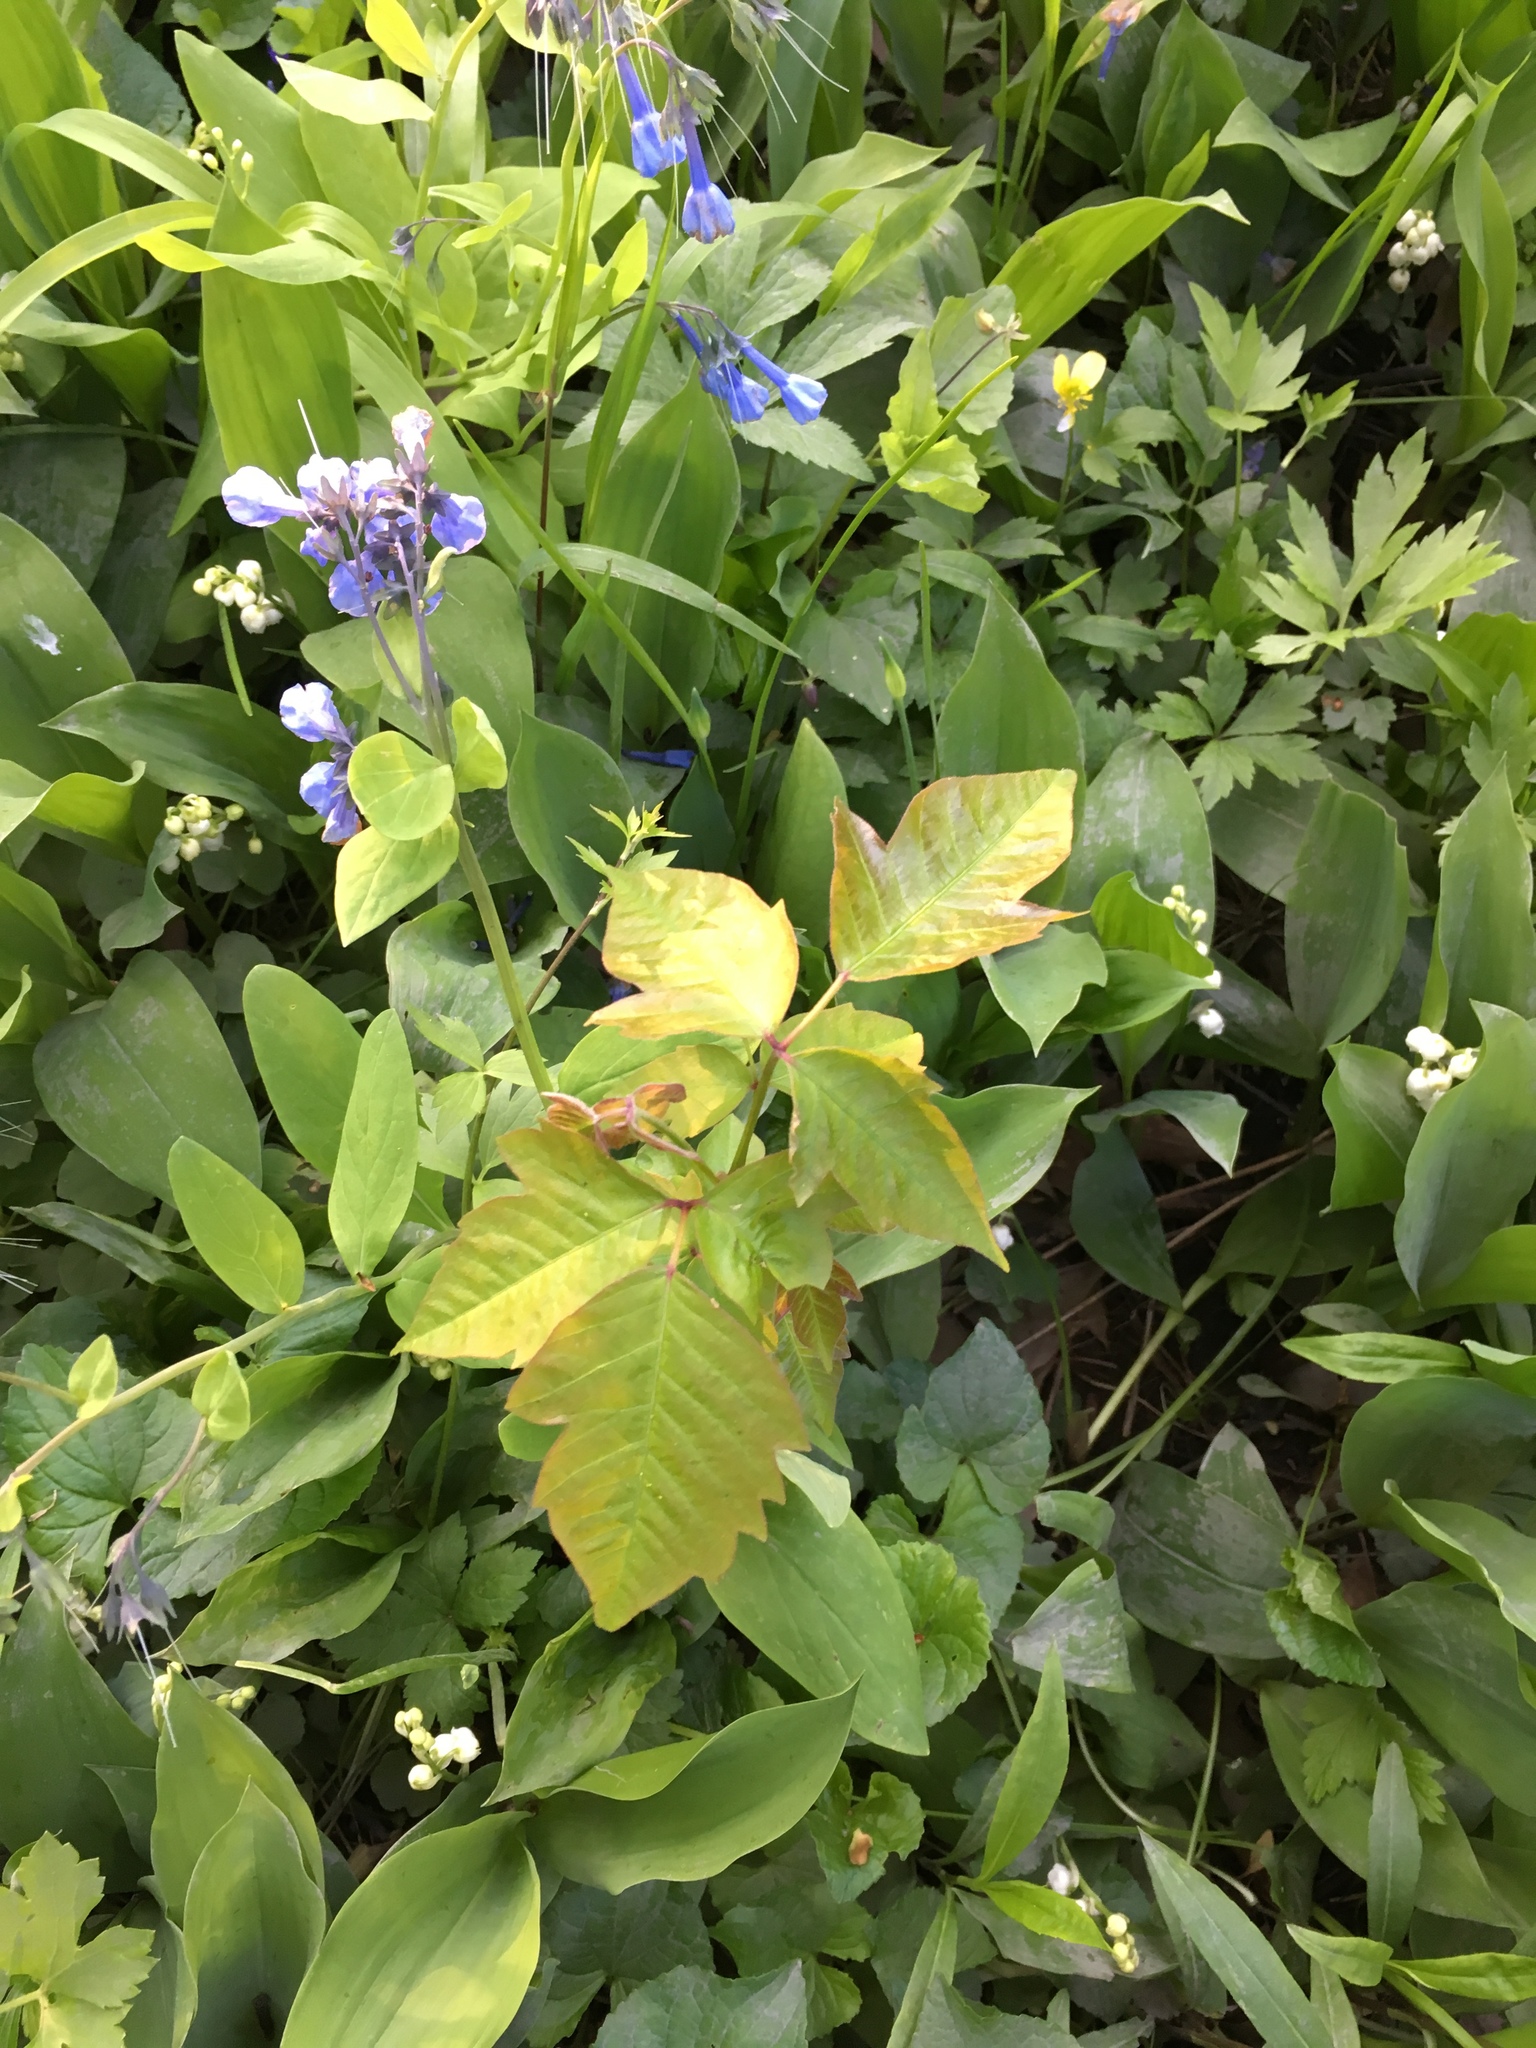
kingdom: Plantae
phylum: Tracheophyta
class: Magnoliopsida
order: Sapindales
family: Anacardiaceae
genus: Toxicodendron
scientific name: Toxicodendron radicans
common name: Poison ivy
